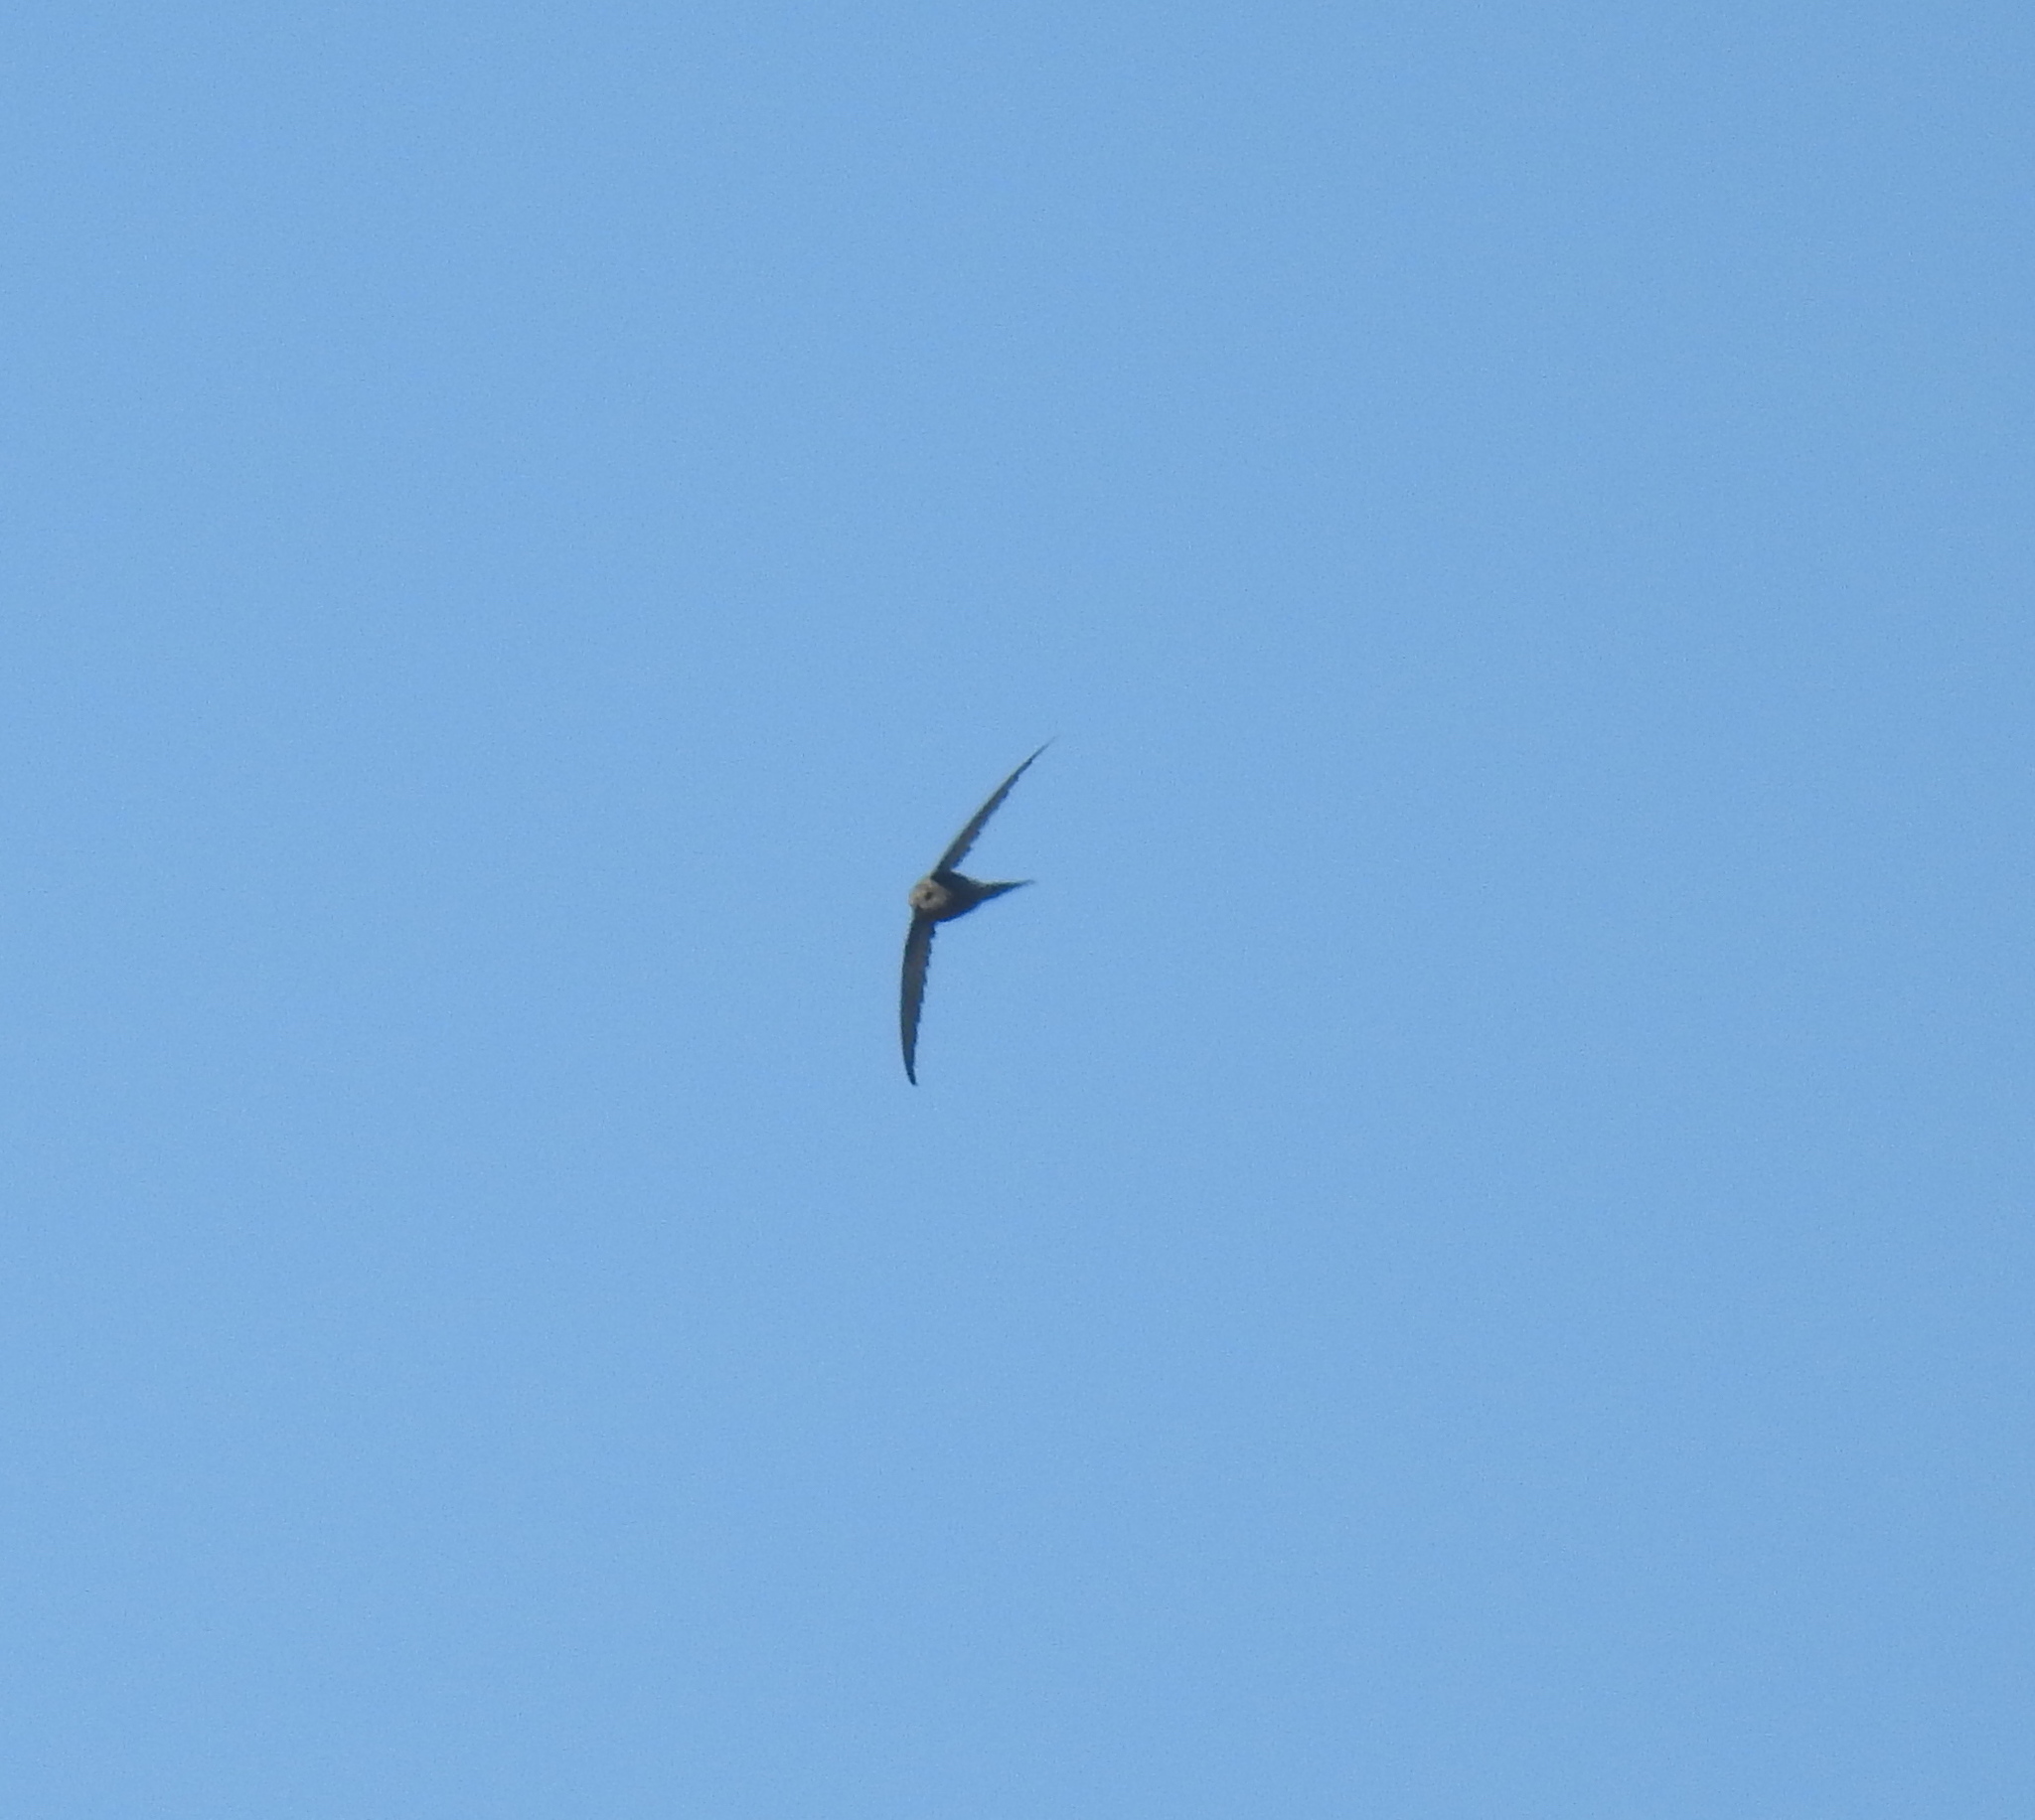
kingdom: Animalia
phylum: Chordata
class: Aves
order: Apodiformes
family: Apodidae
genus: Cypsiurus
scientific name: Cypsiurus parvus
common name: African palm swift
